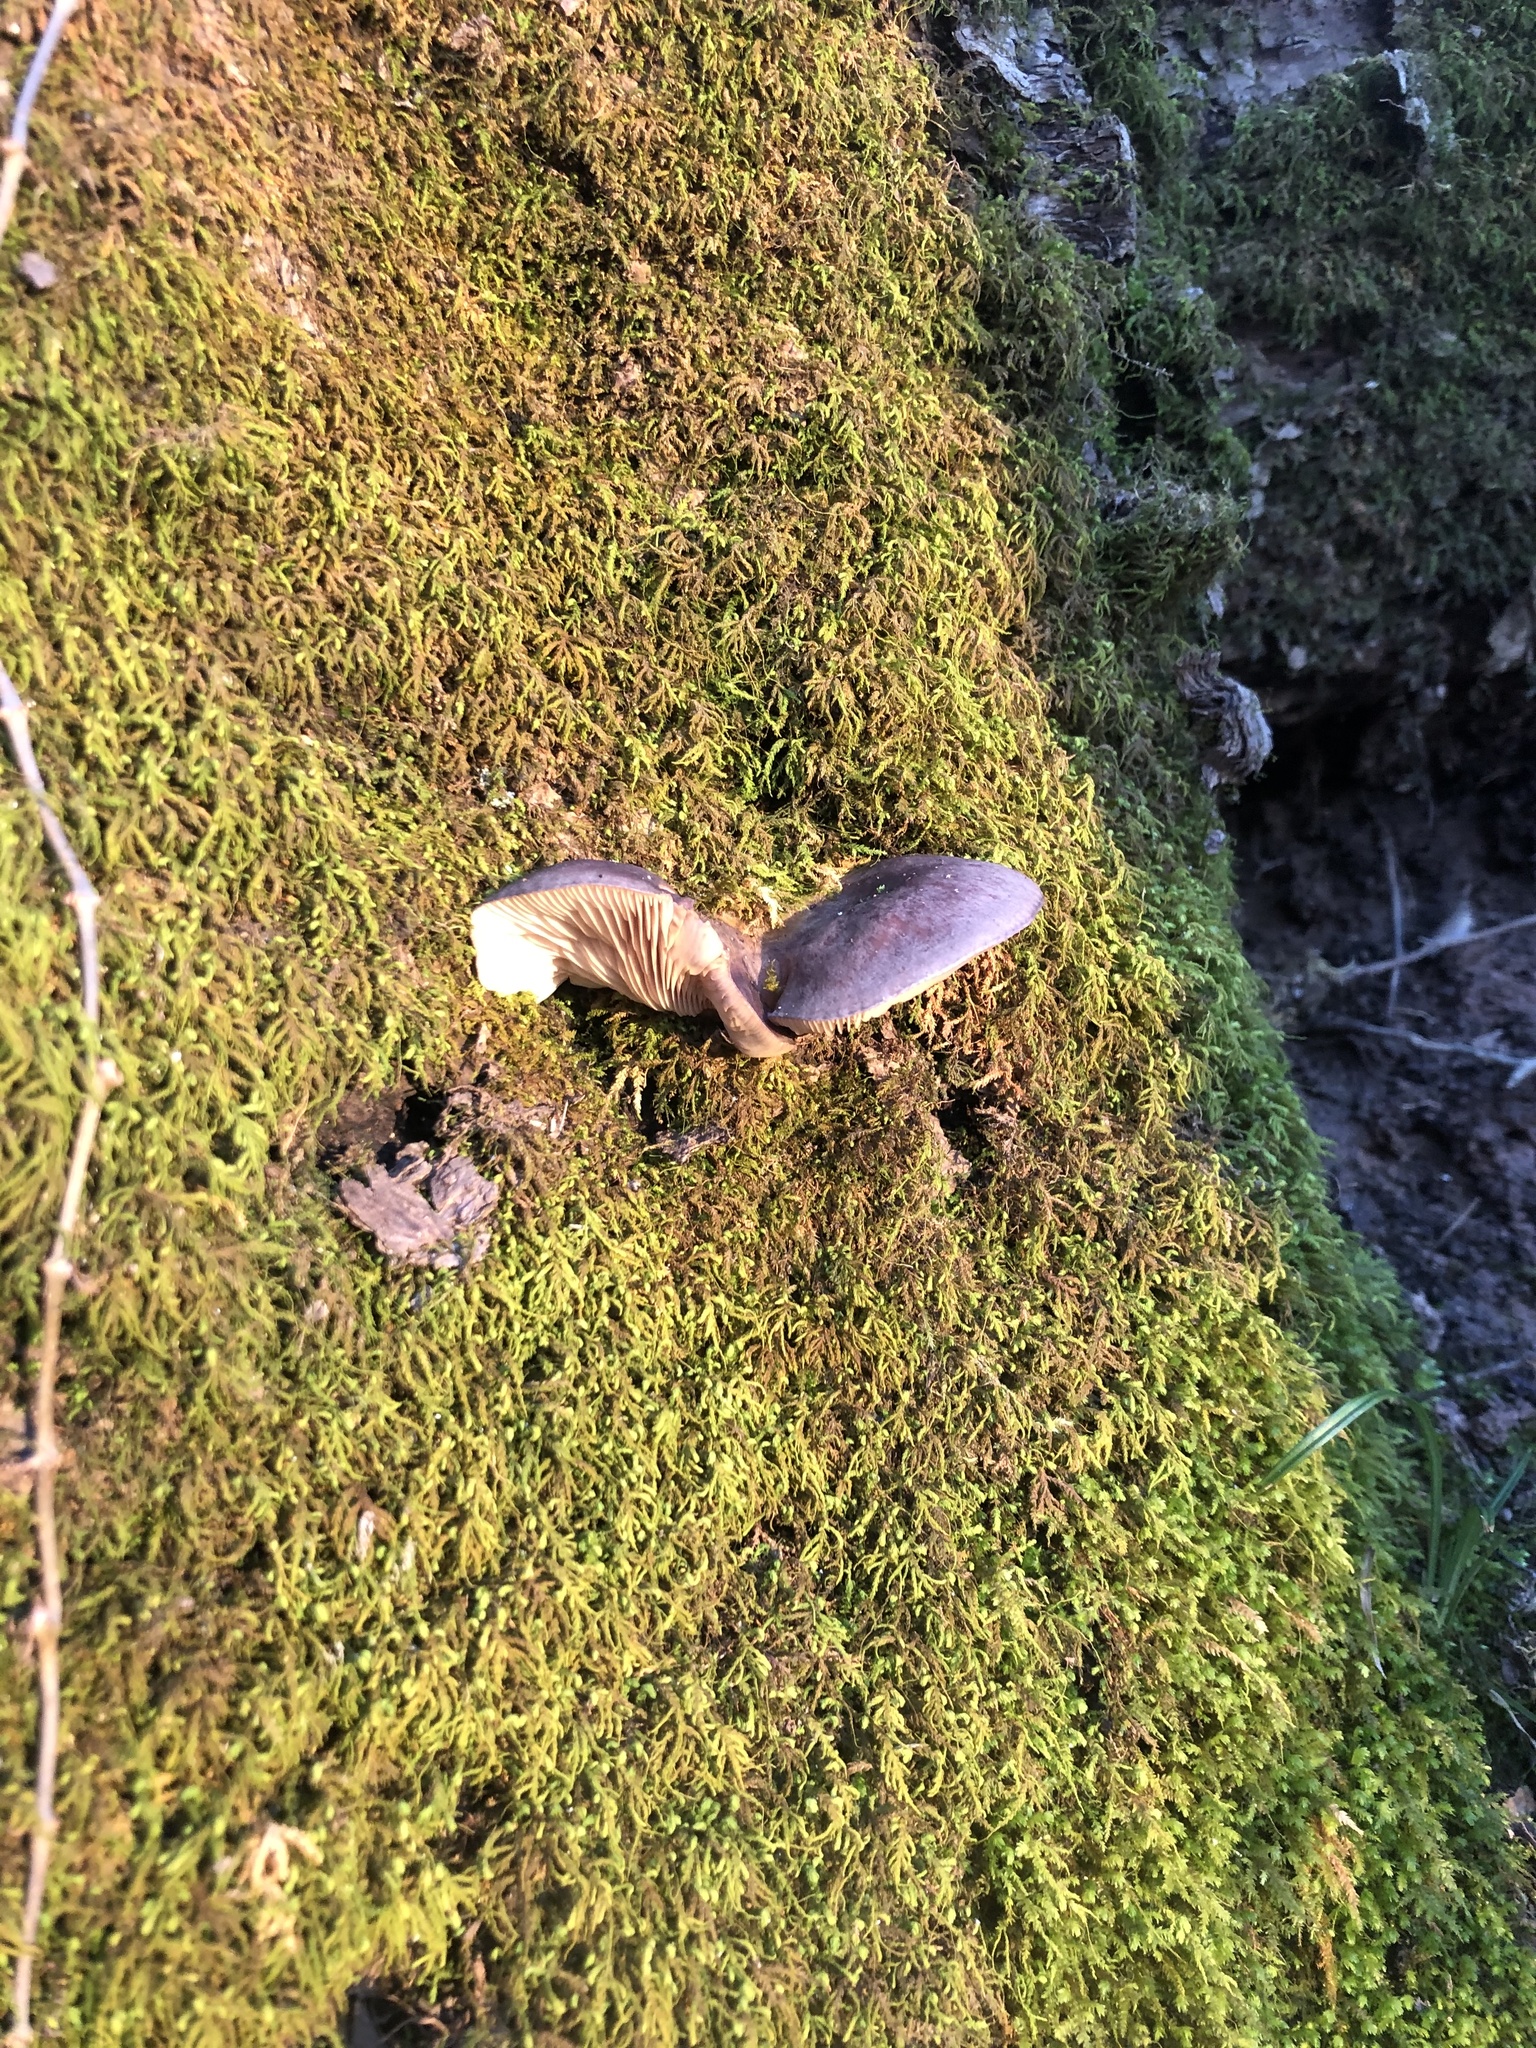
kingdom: Fungi
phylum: Basidiomycota
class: Agaricomycetes
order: Agaricales
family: Sarcomyxaceae
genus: Sarcomyxa
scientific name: Sarcomyxa serotina
